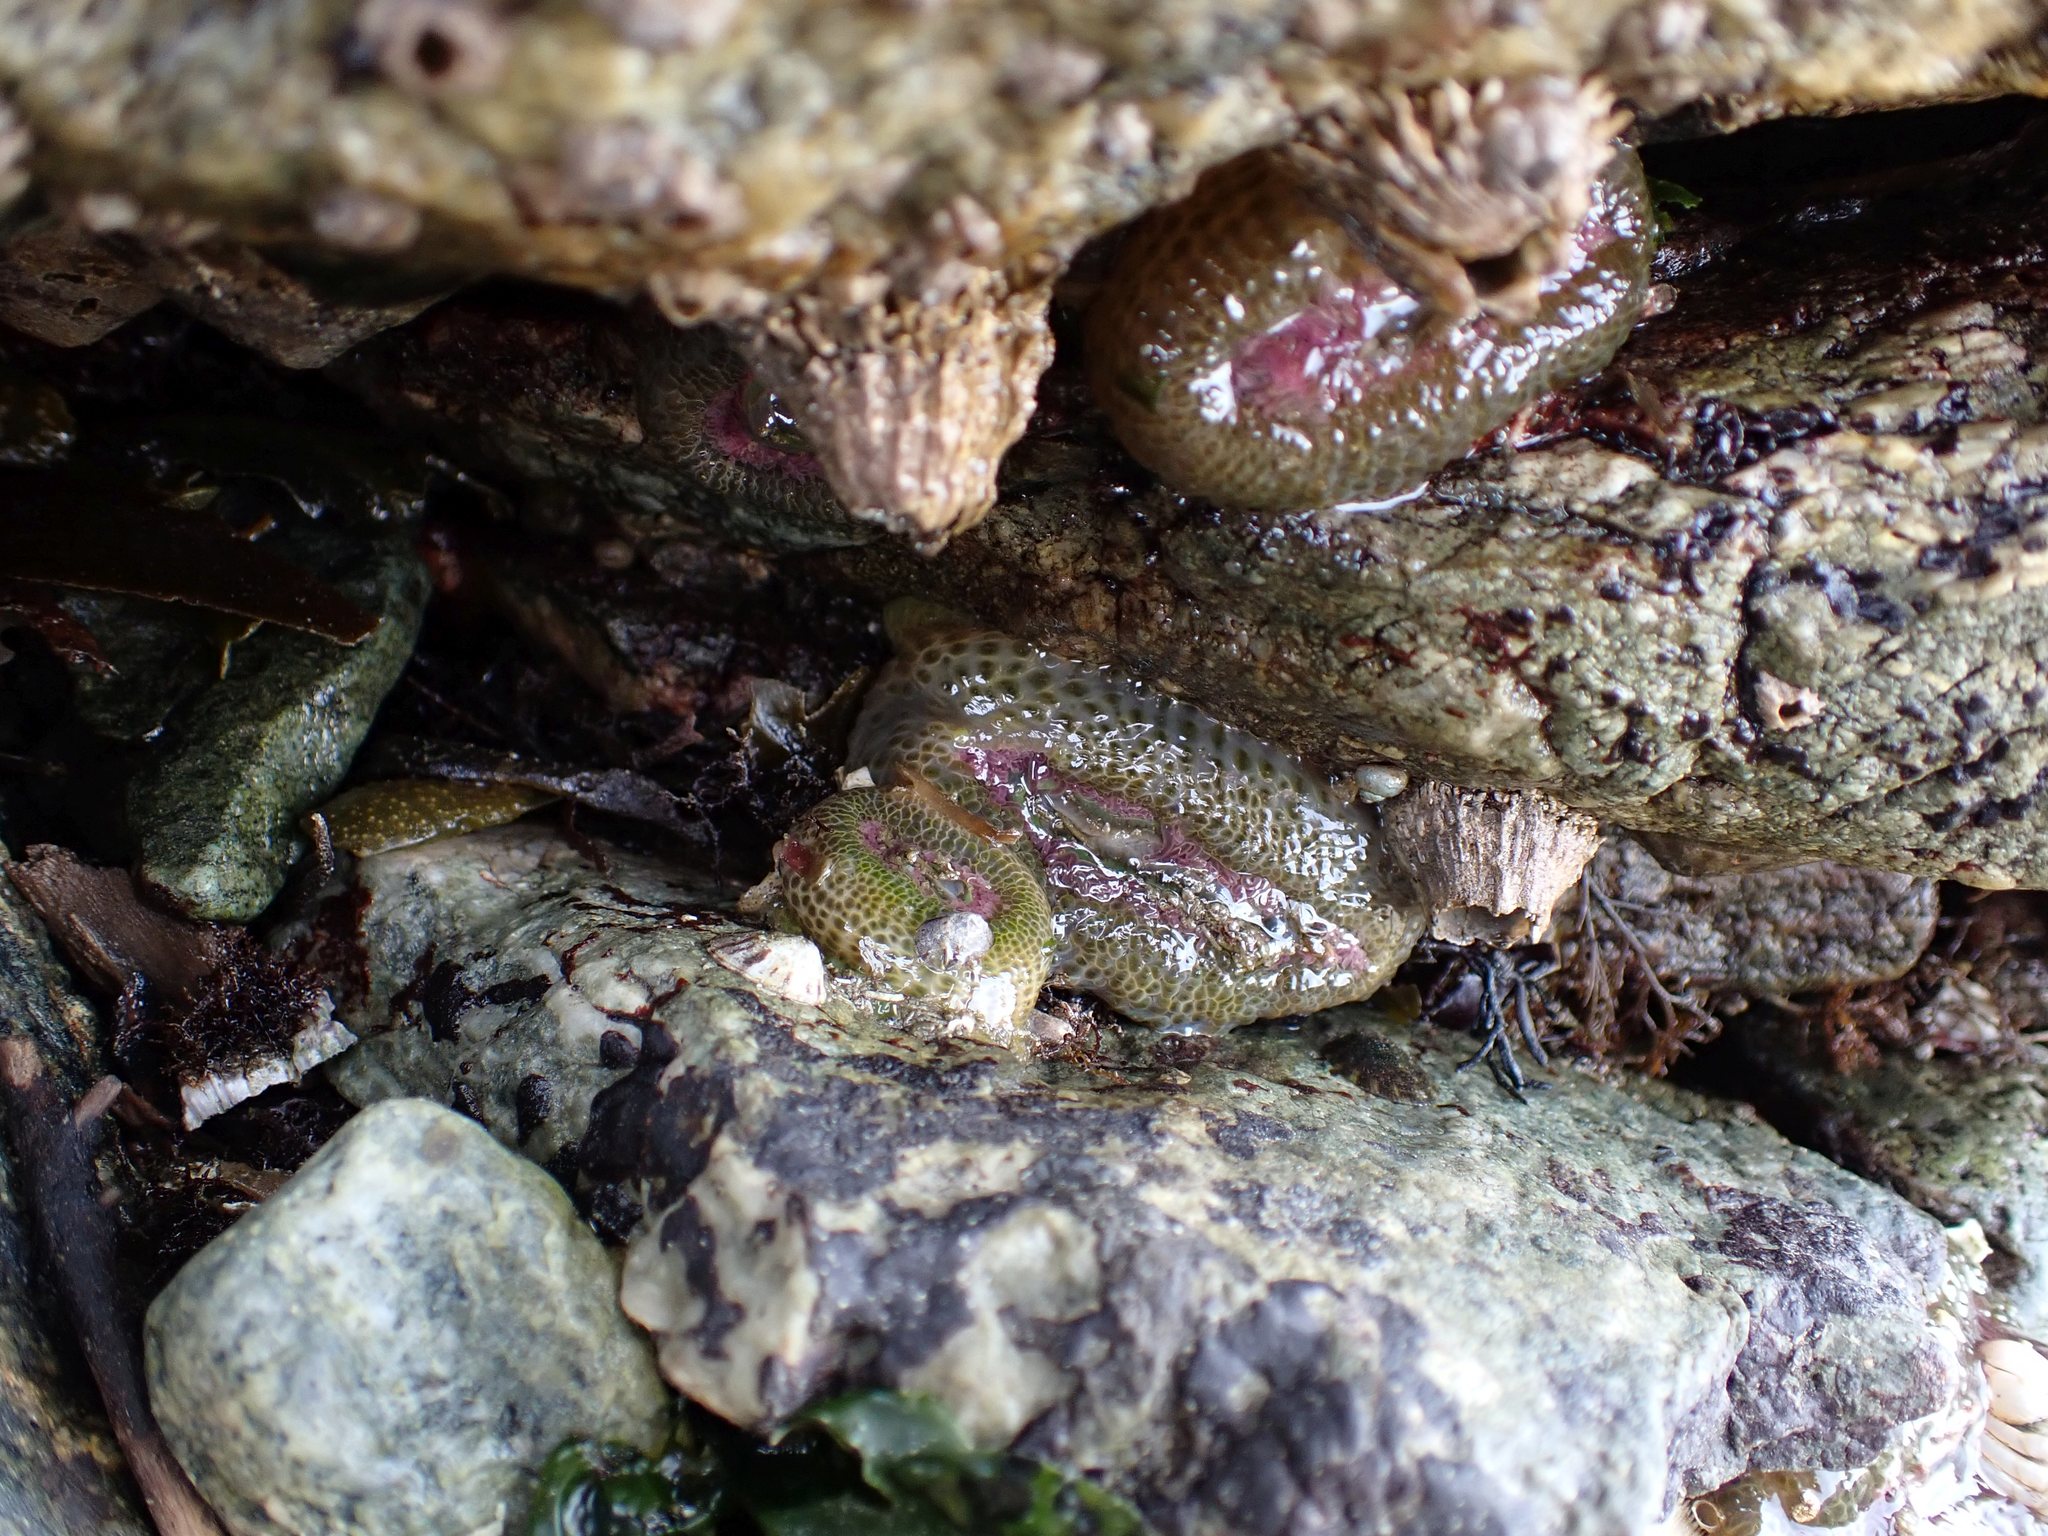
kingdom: Animalia
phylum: Cnidaria
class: Anthozoa
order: Actiniaria
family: Actiniidae
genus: Anthopleura
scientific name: Anthopleura elegantissima
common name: Clonal anemone
